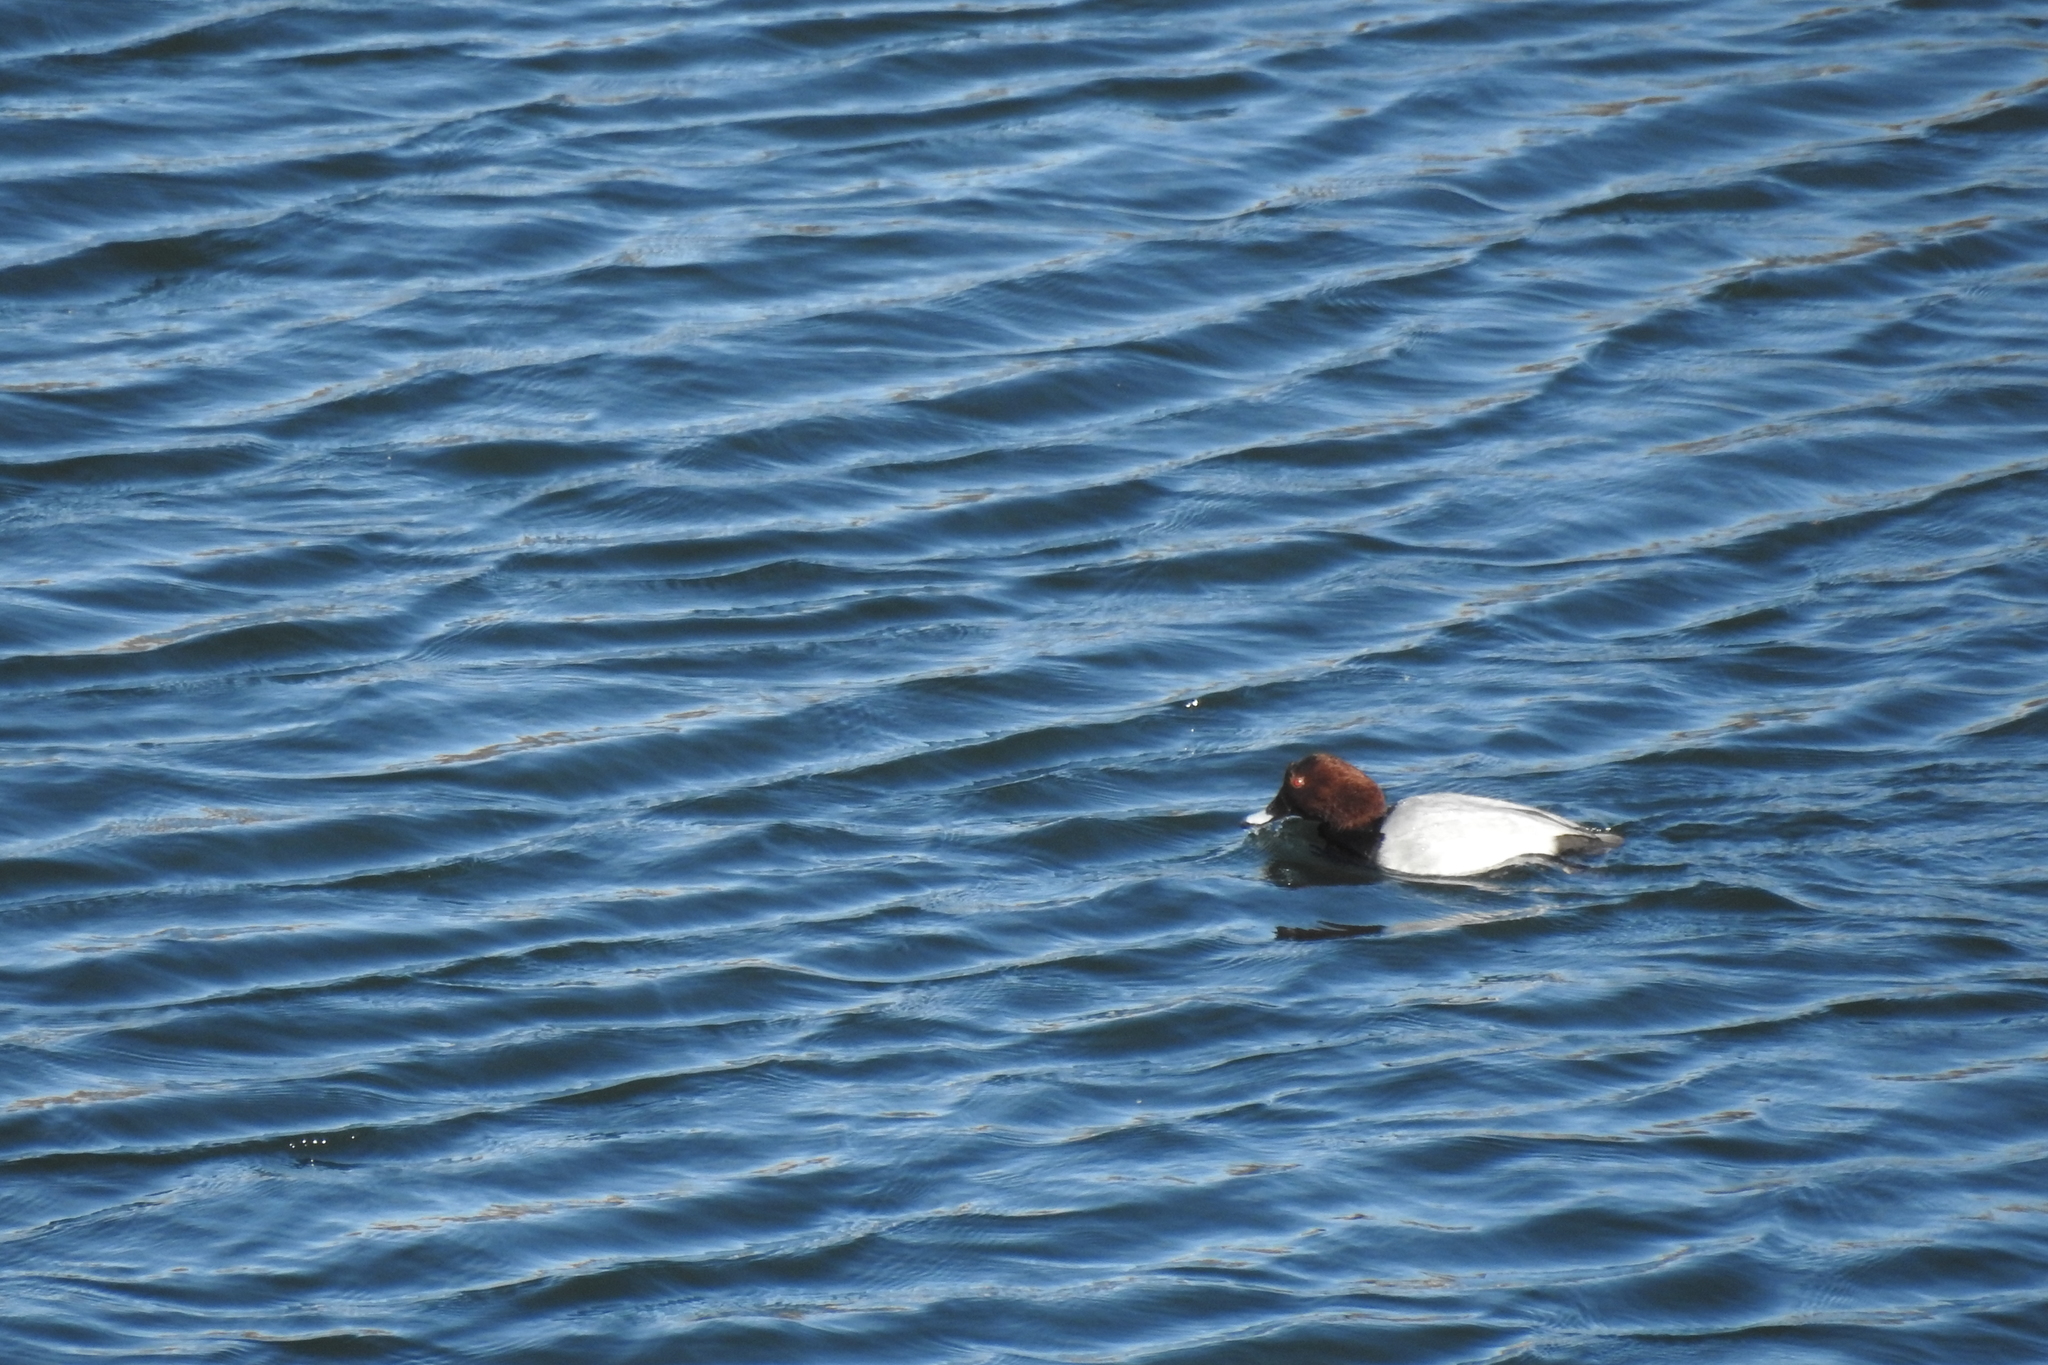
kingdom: Animalia
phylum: Chordata
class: Aves
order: Anseriformes
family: Anatidae
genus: Aythya
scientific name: Aythya ferina
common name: Common pochard
